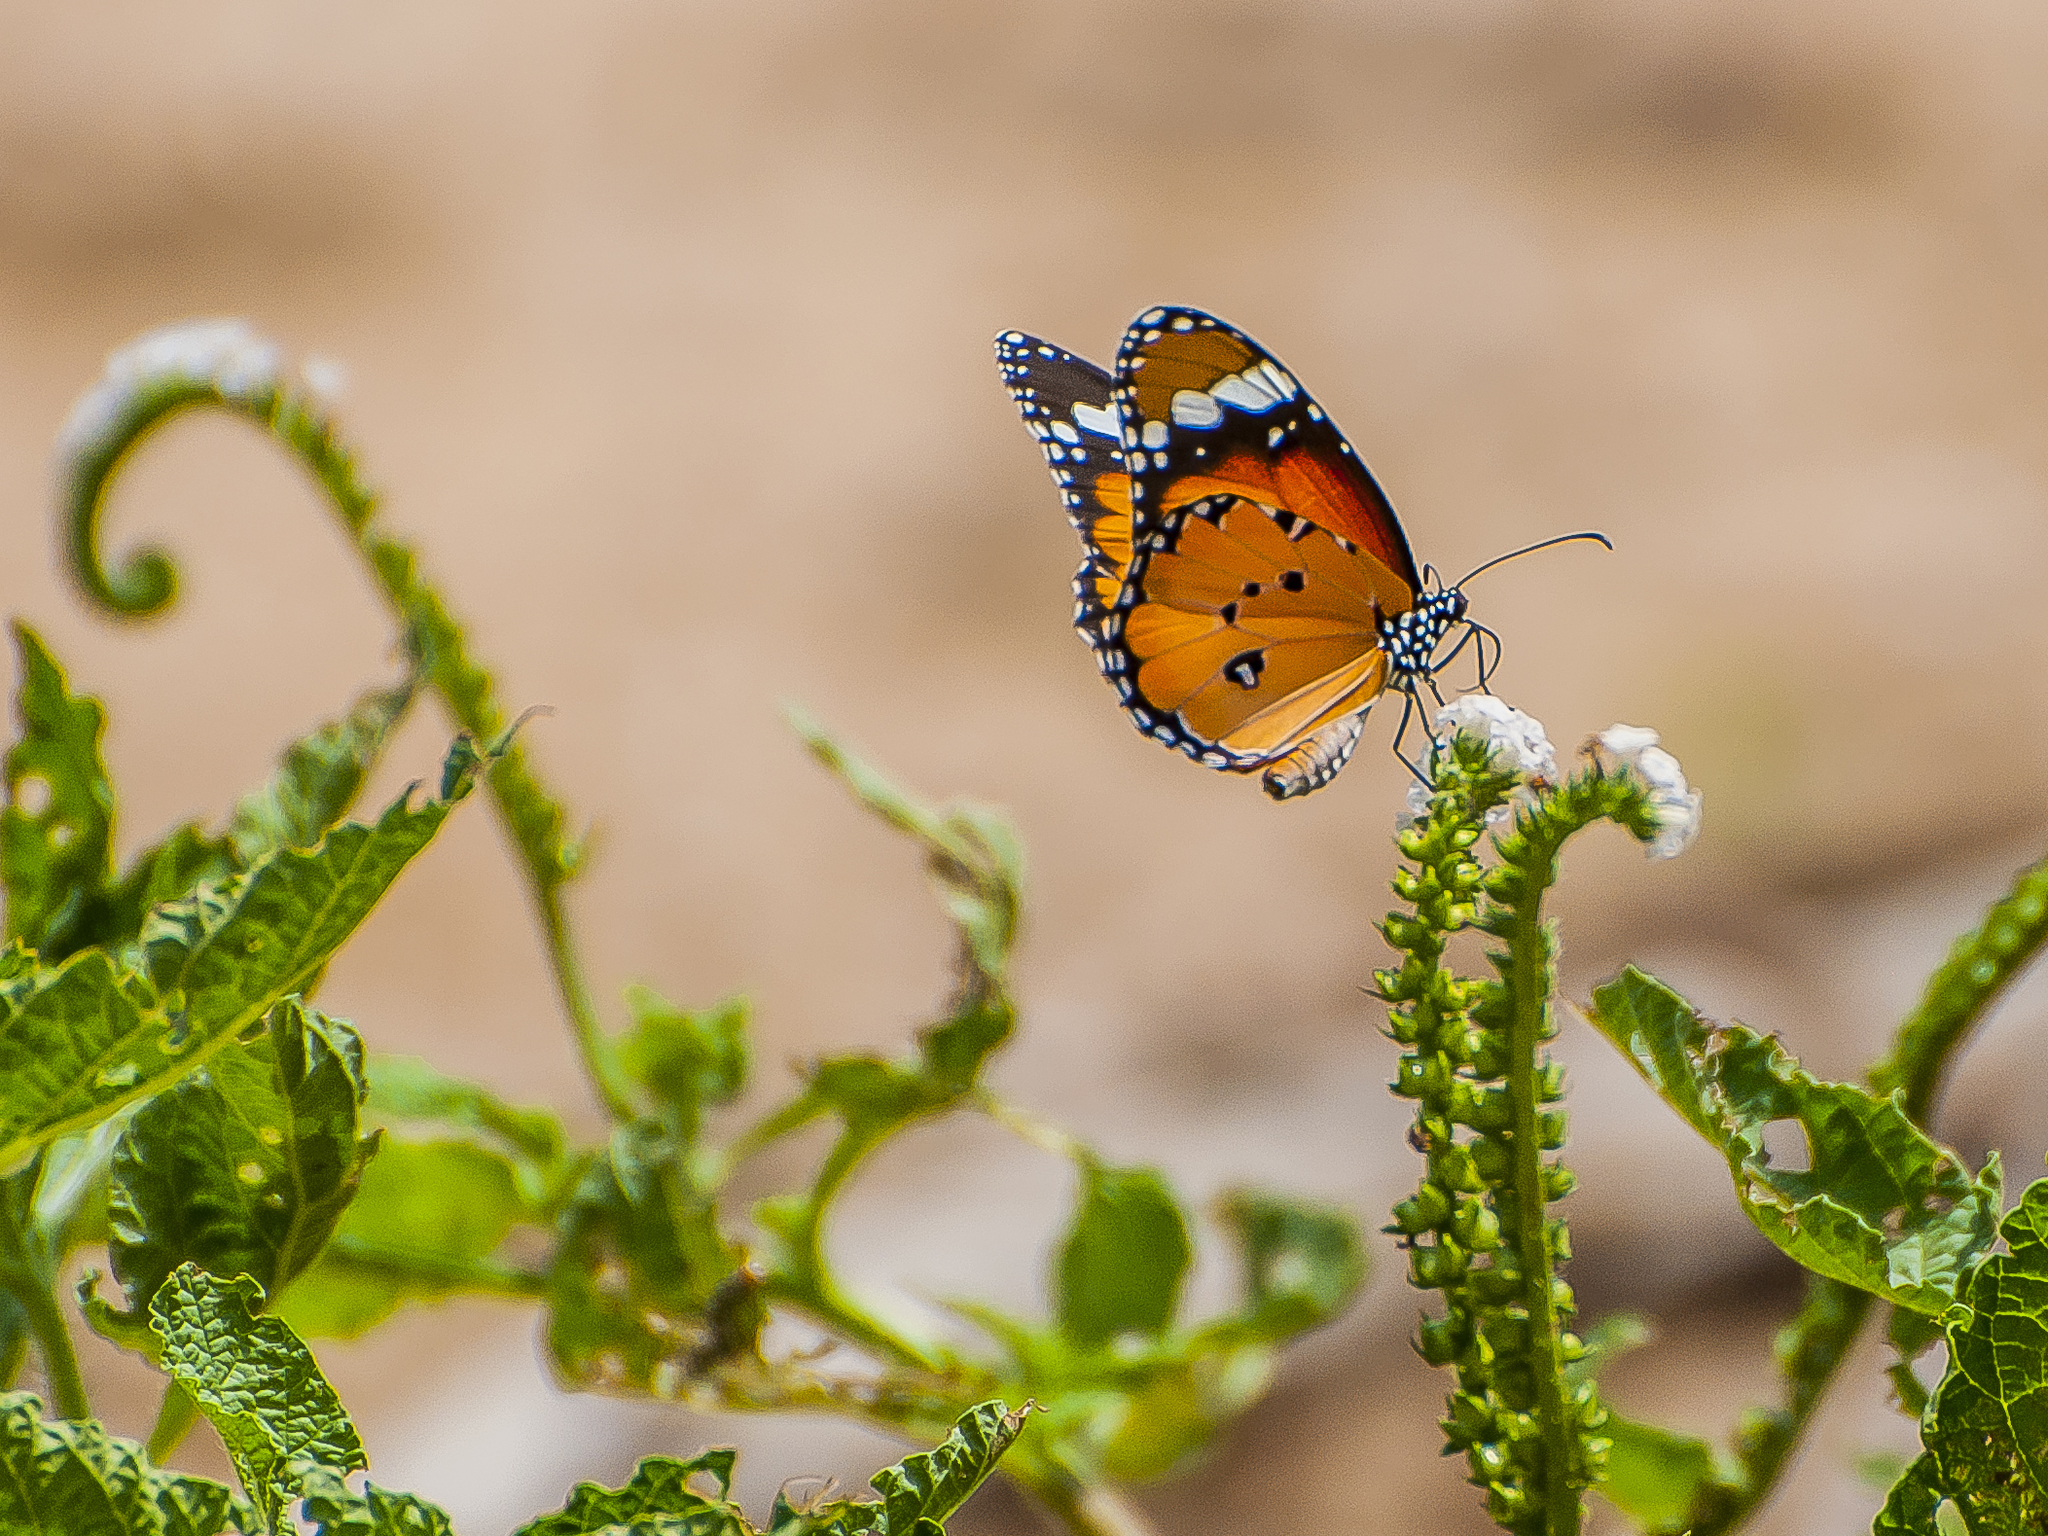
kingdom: Animalia
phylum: Arthropoda
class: Insecta
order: Lepidoptera
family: Nymphalidae
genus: Danaus
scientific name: Danaus chrysippus
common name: Plain tiger
